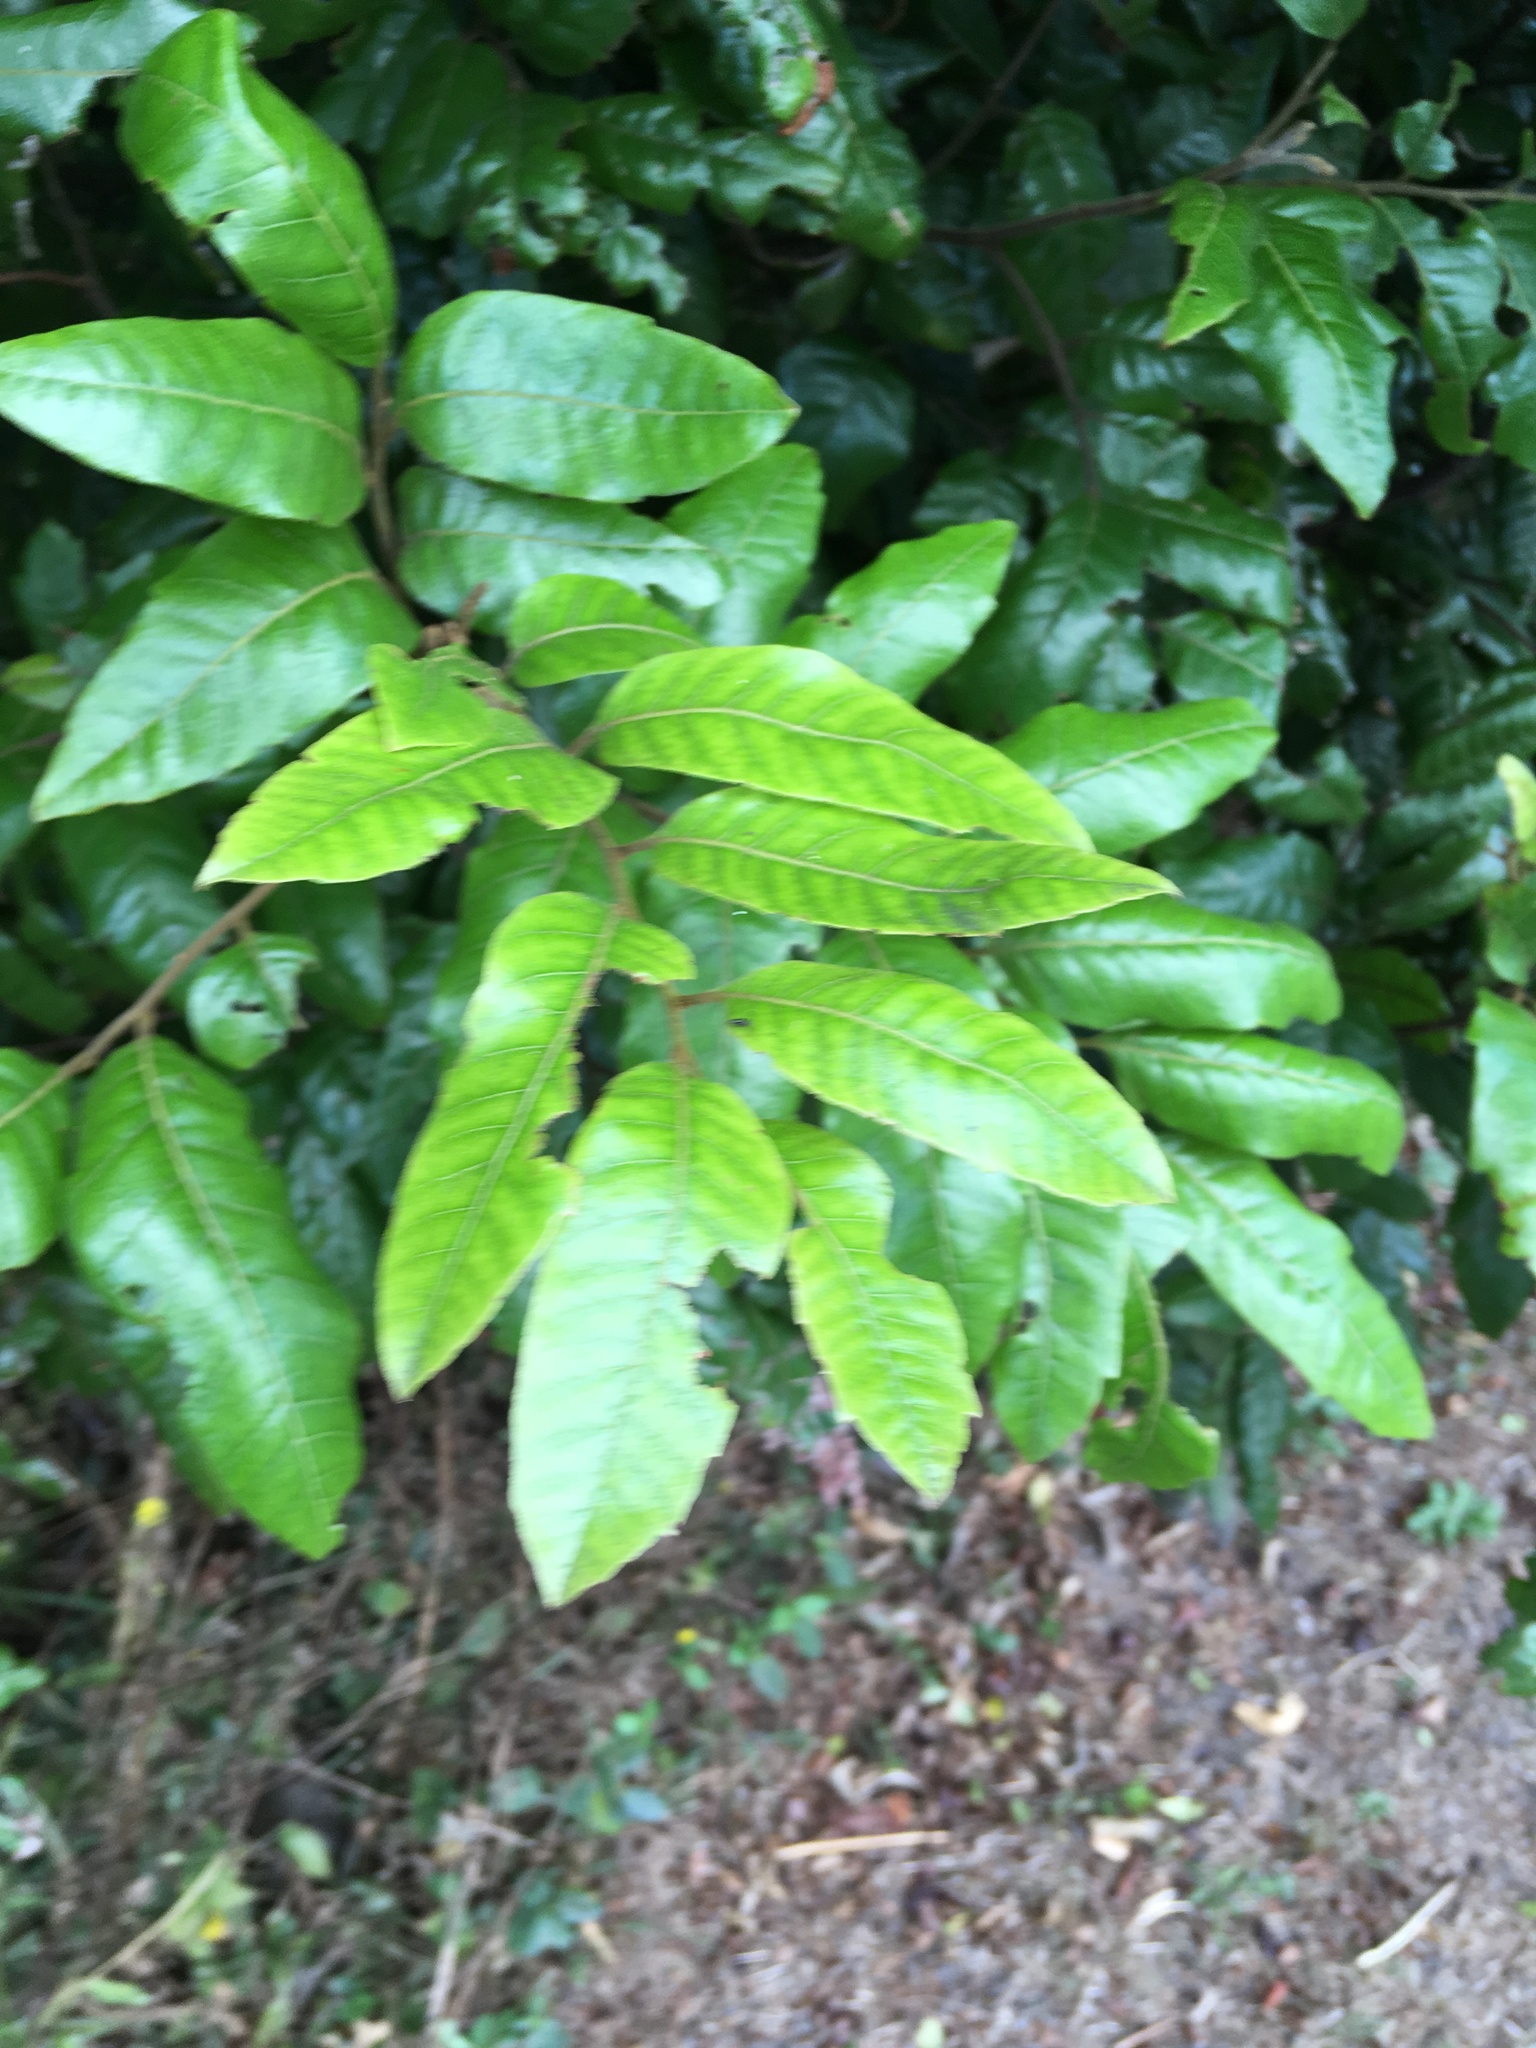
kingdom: Plantae
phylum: Tracheophyta
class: Magnoliopsida
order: Sapindales
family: Sapindaceae
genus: Alectryon
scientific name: Alectryon excelsus
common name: Three kings titoki
